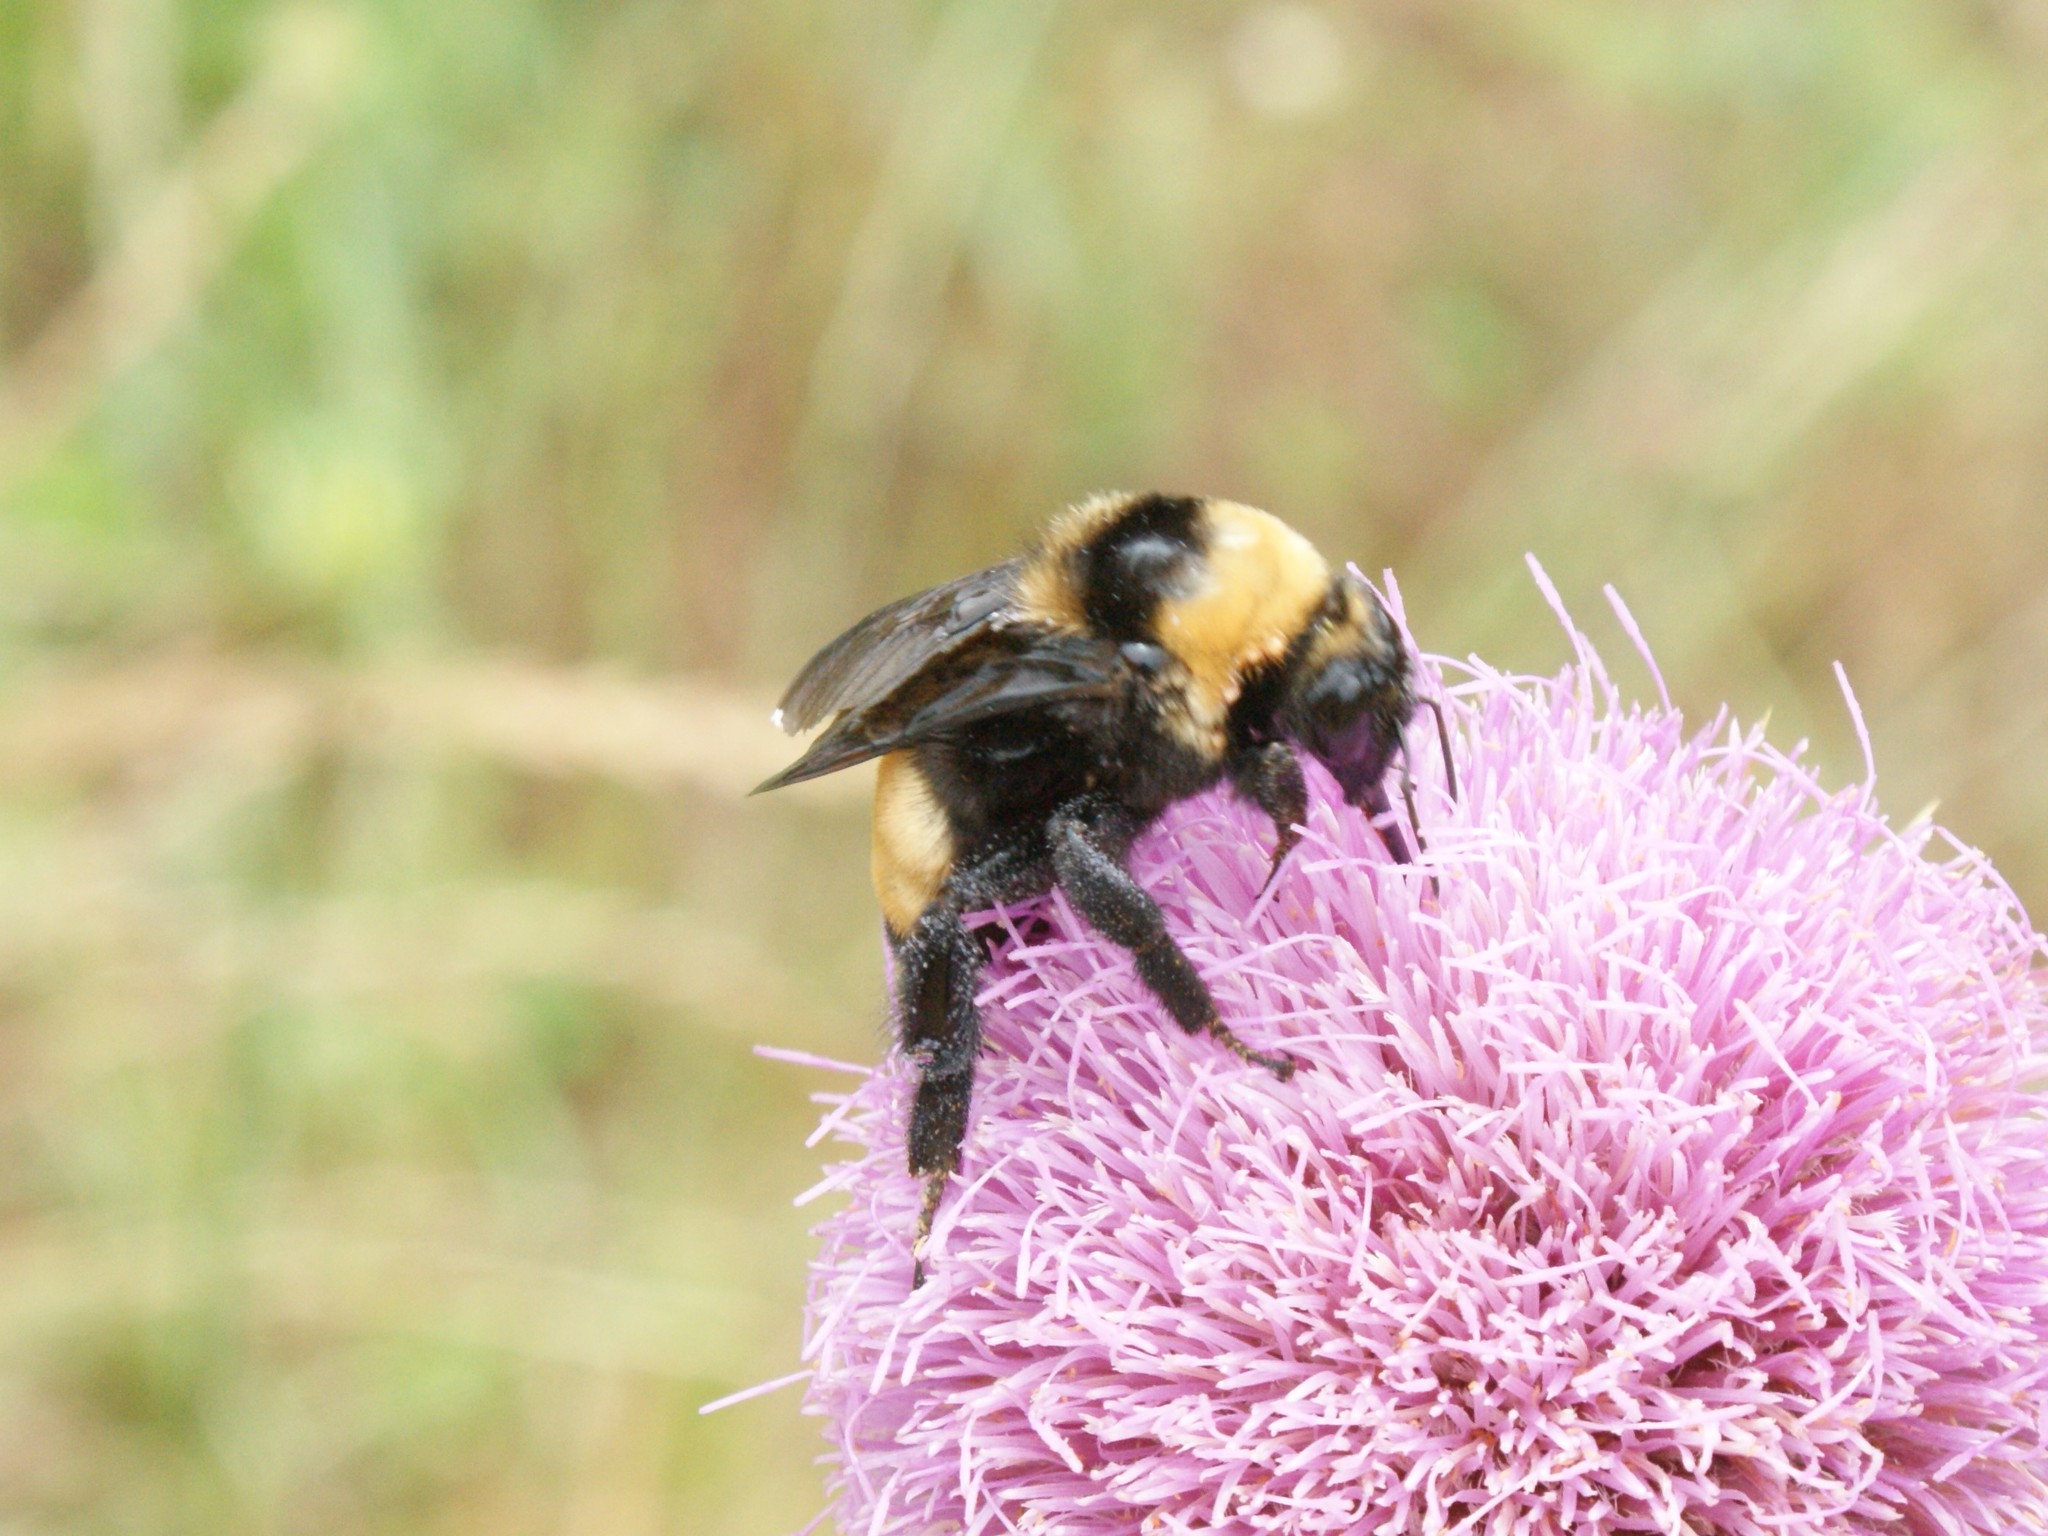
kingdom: Animalia
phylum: Arthropoda
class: Insecta
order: Hymenoptera
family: Apidae
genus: Bombus
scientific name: Bombus auricomus
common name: Black and gold bumble bee
